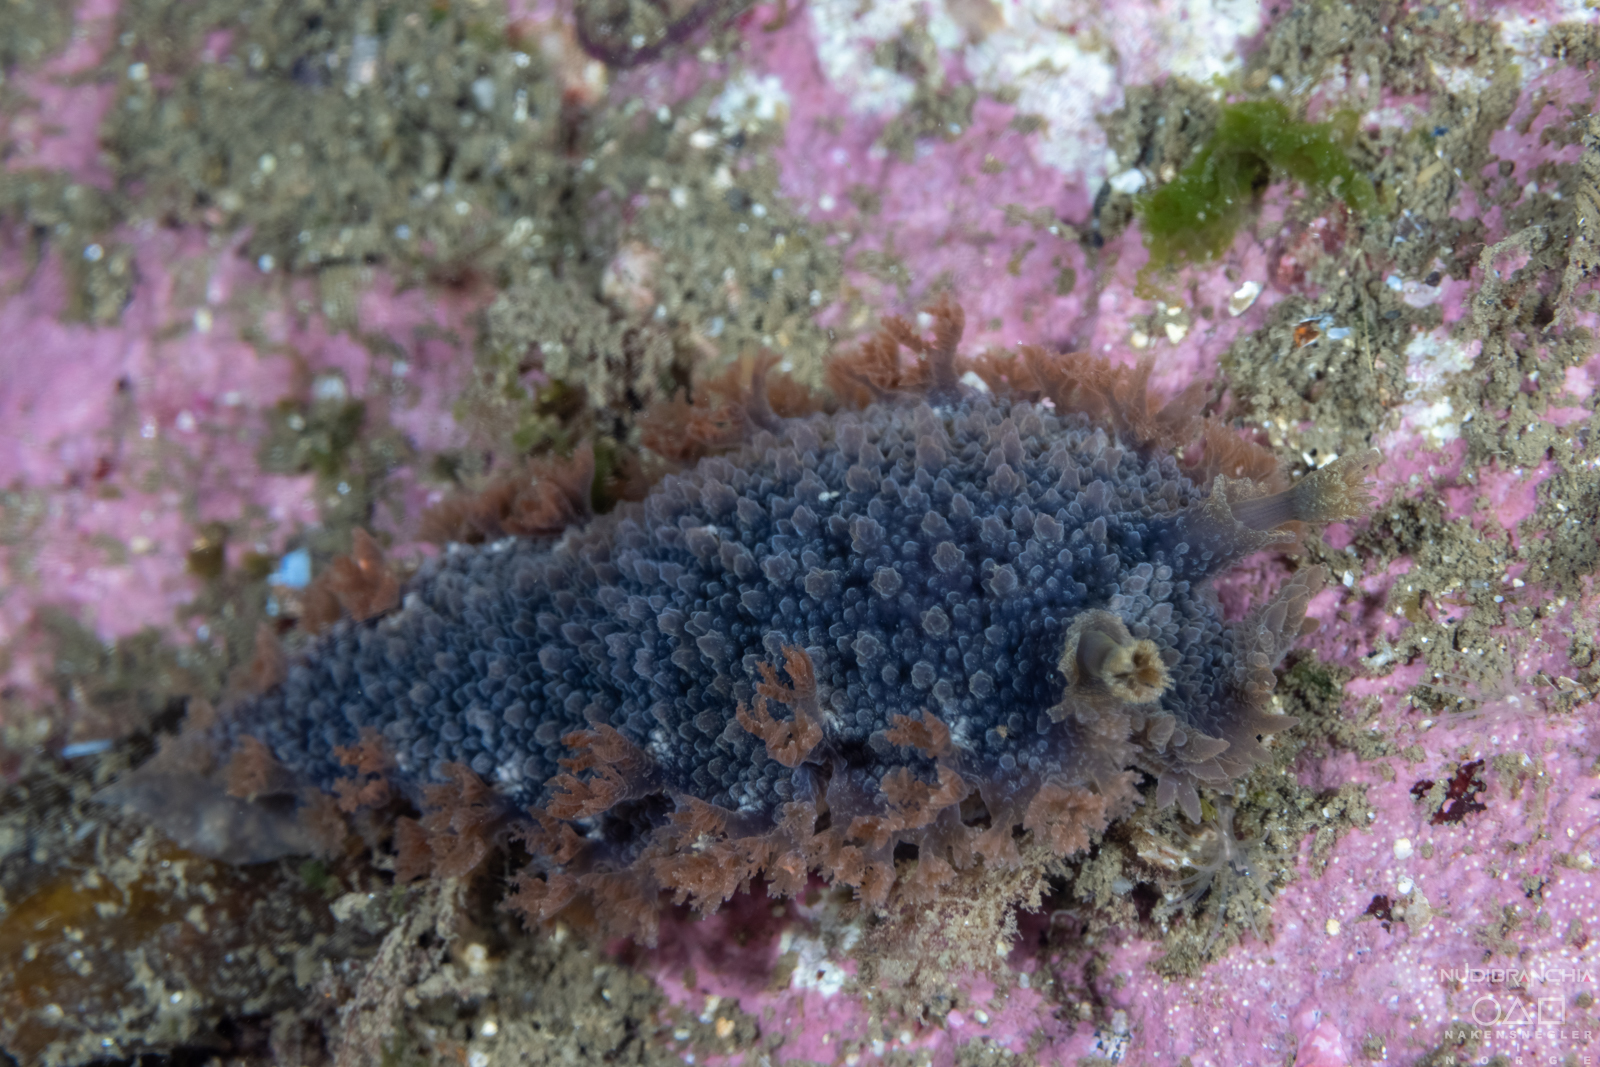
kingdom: Animalia
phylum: Mollusca
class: Gastropoda
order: Nudibranchia
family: Tritoniidae
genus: Tritonia
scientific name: Tritonia hombergii
